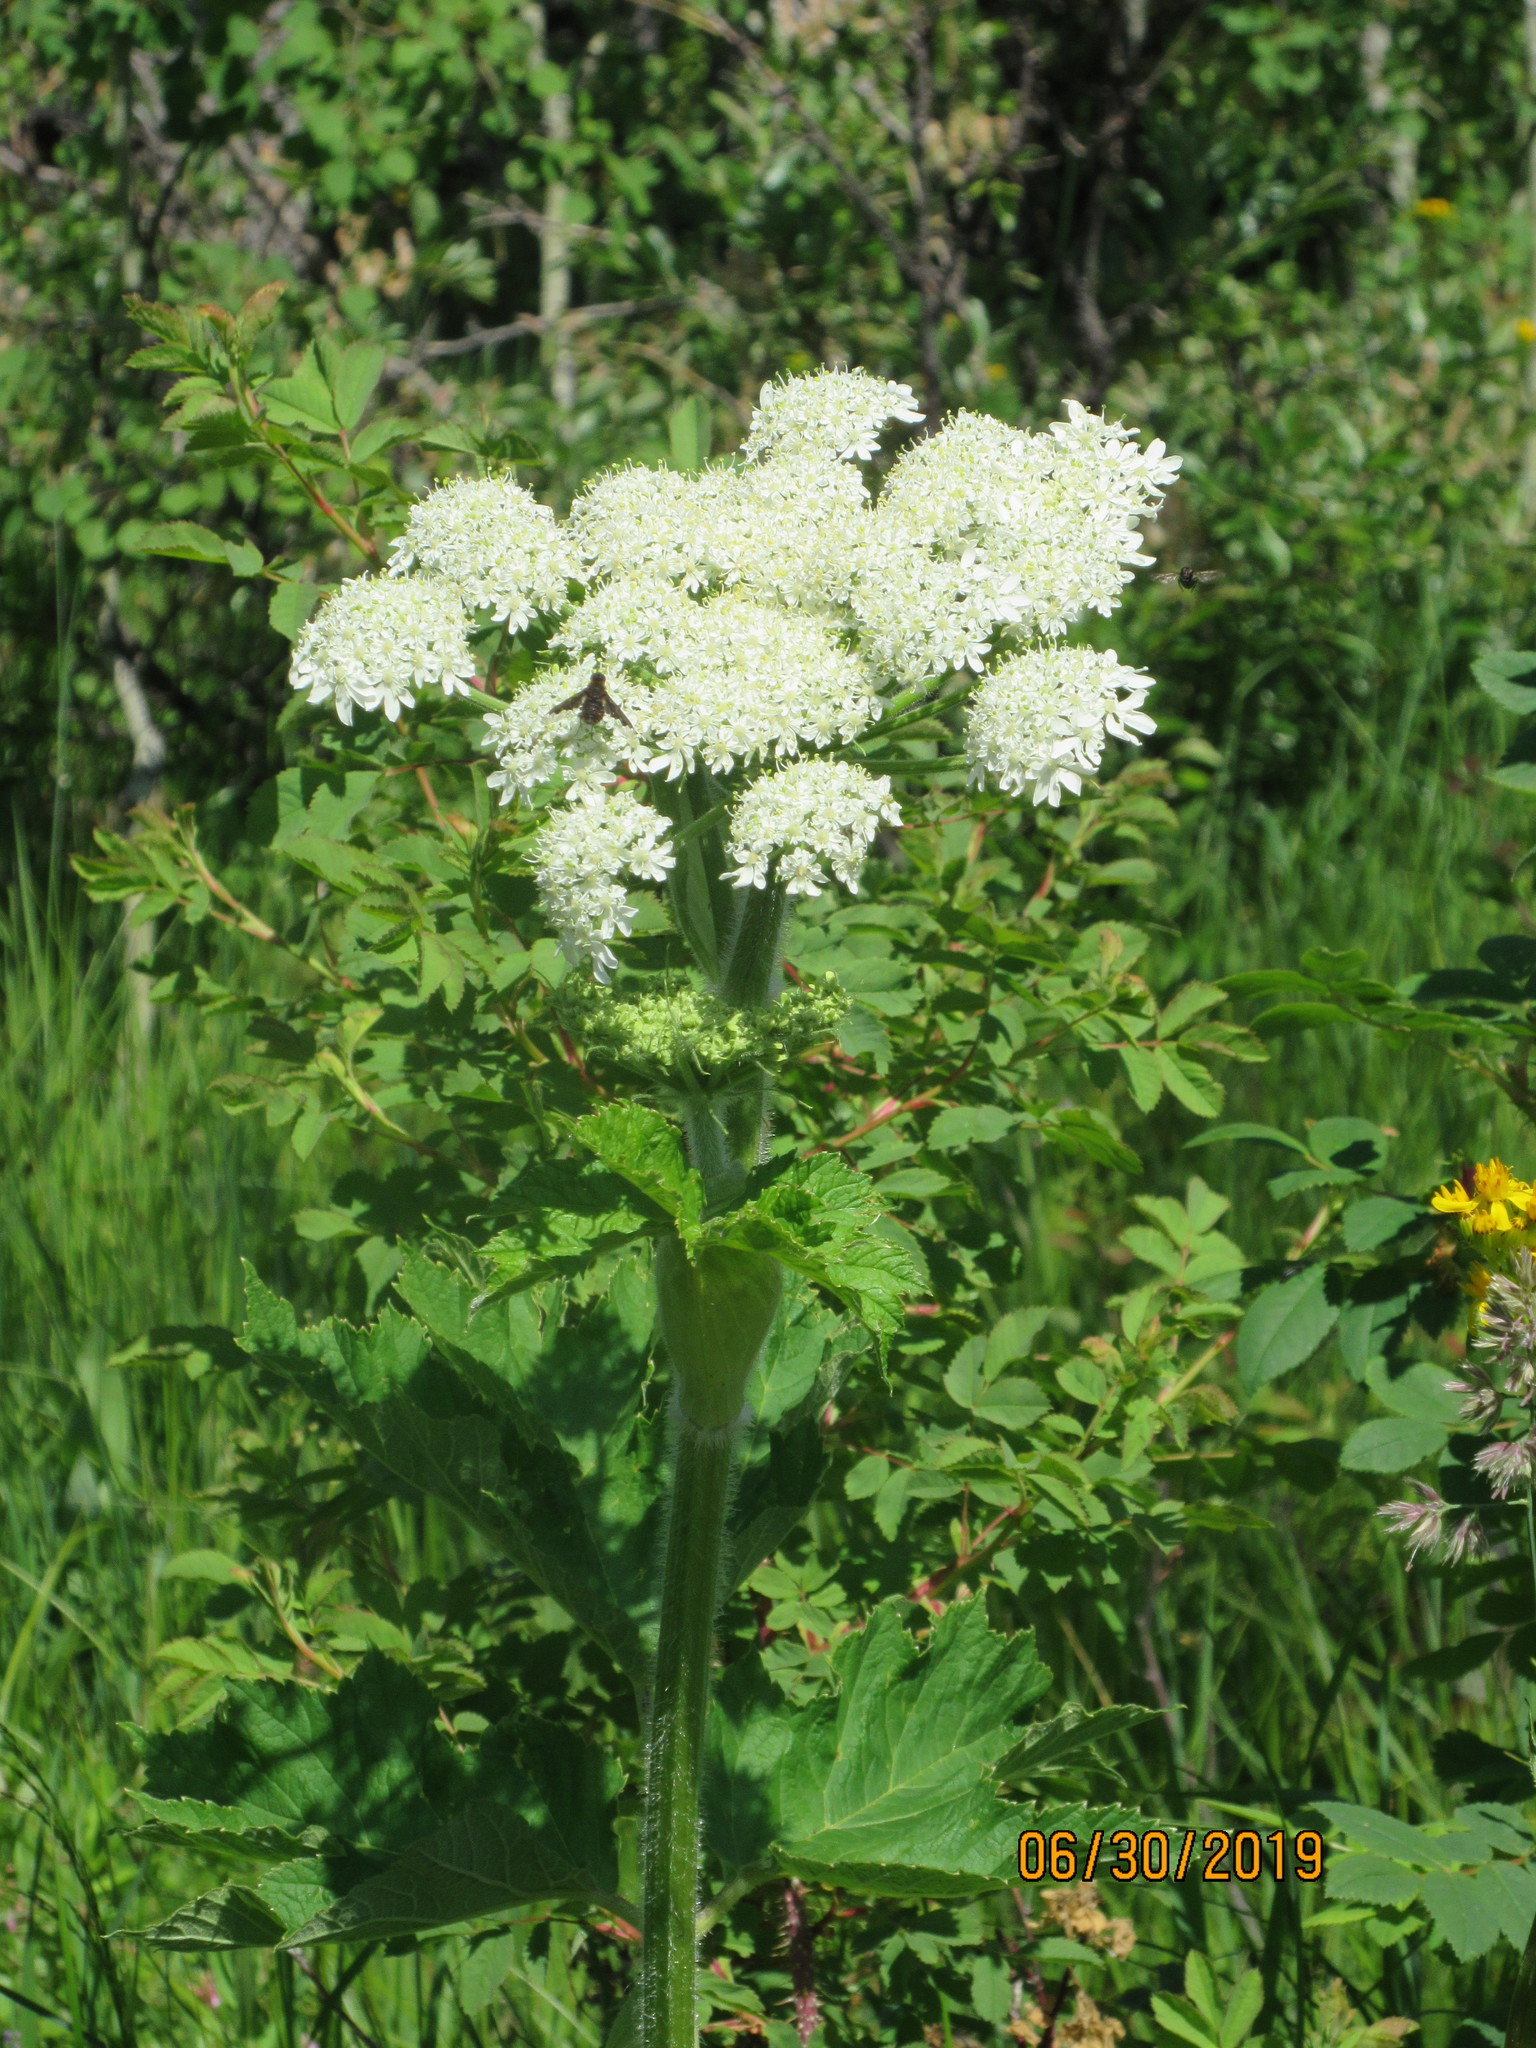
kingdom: Plantae
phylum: Tracheophyta
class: Magnoliopsida
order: Apiales
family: Apiaceae
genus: Heracleum
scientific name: Heracleum maximum
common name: American cow parsnip
